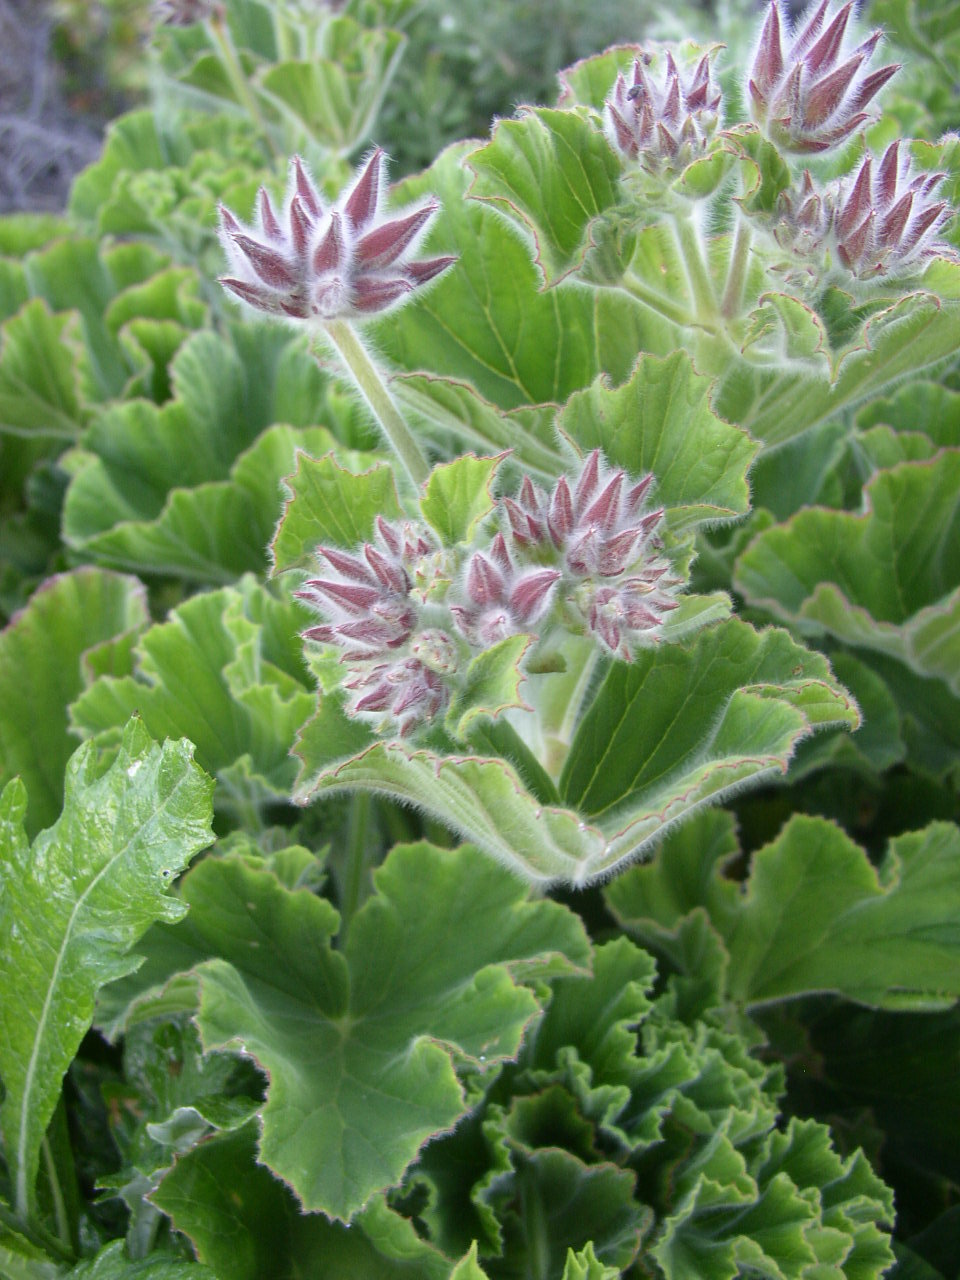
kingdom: Plantae
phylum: Tracheophyta
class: Magnoliopsida
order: Geraniales
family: Geraniaceae
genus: Pelargonium
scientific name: Pelargonium cucullatum
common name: Tree pelargonium
